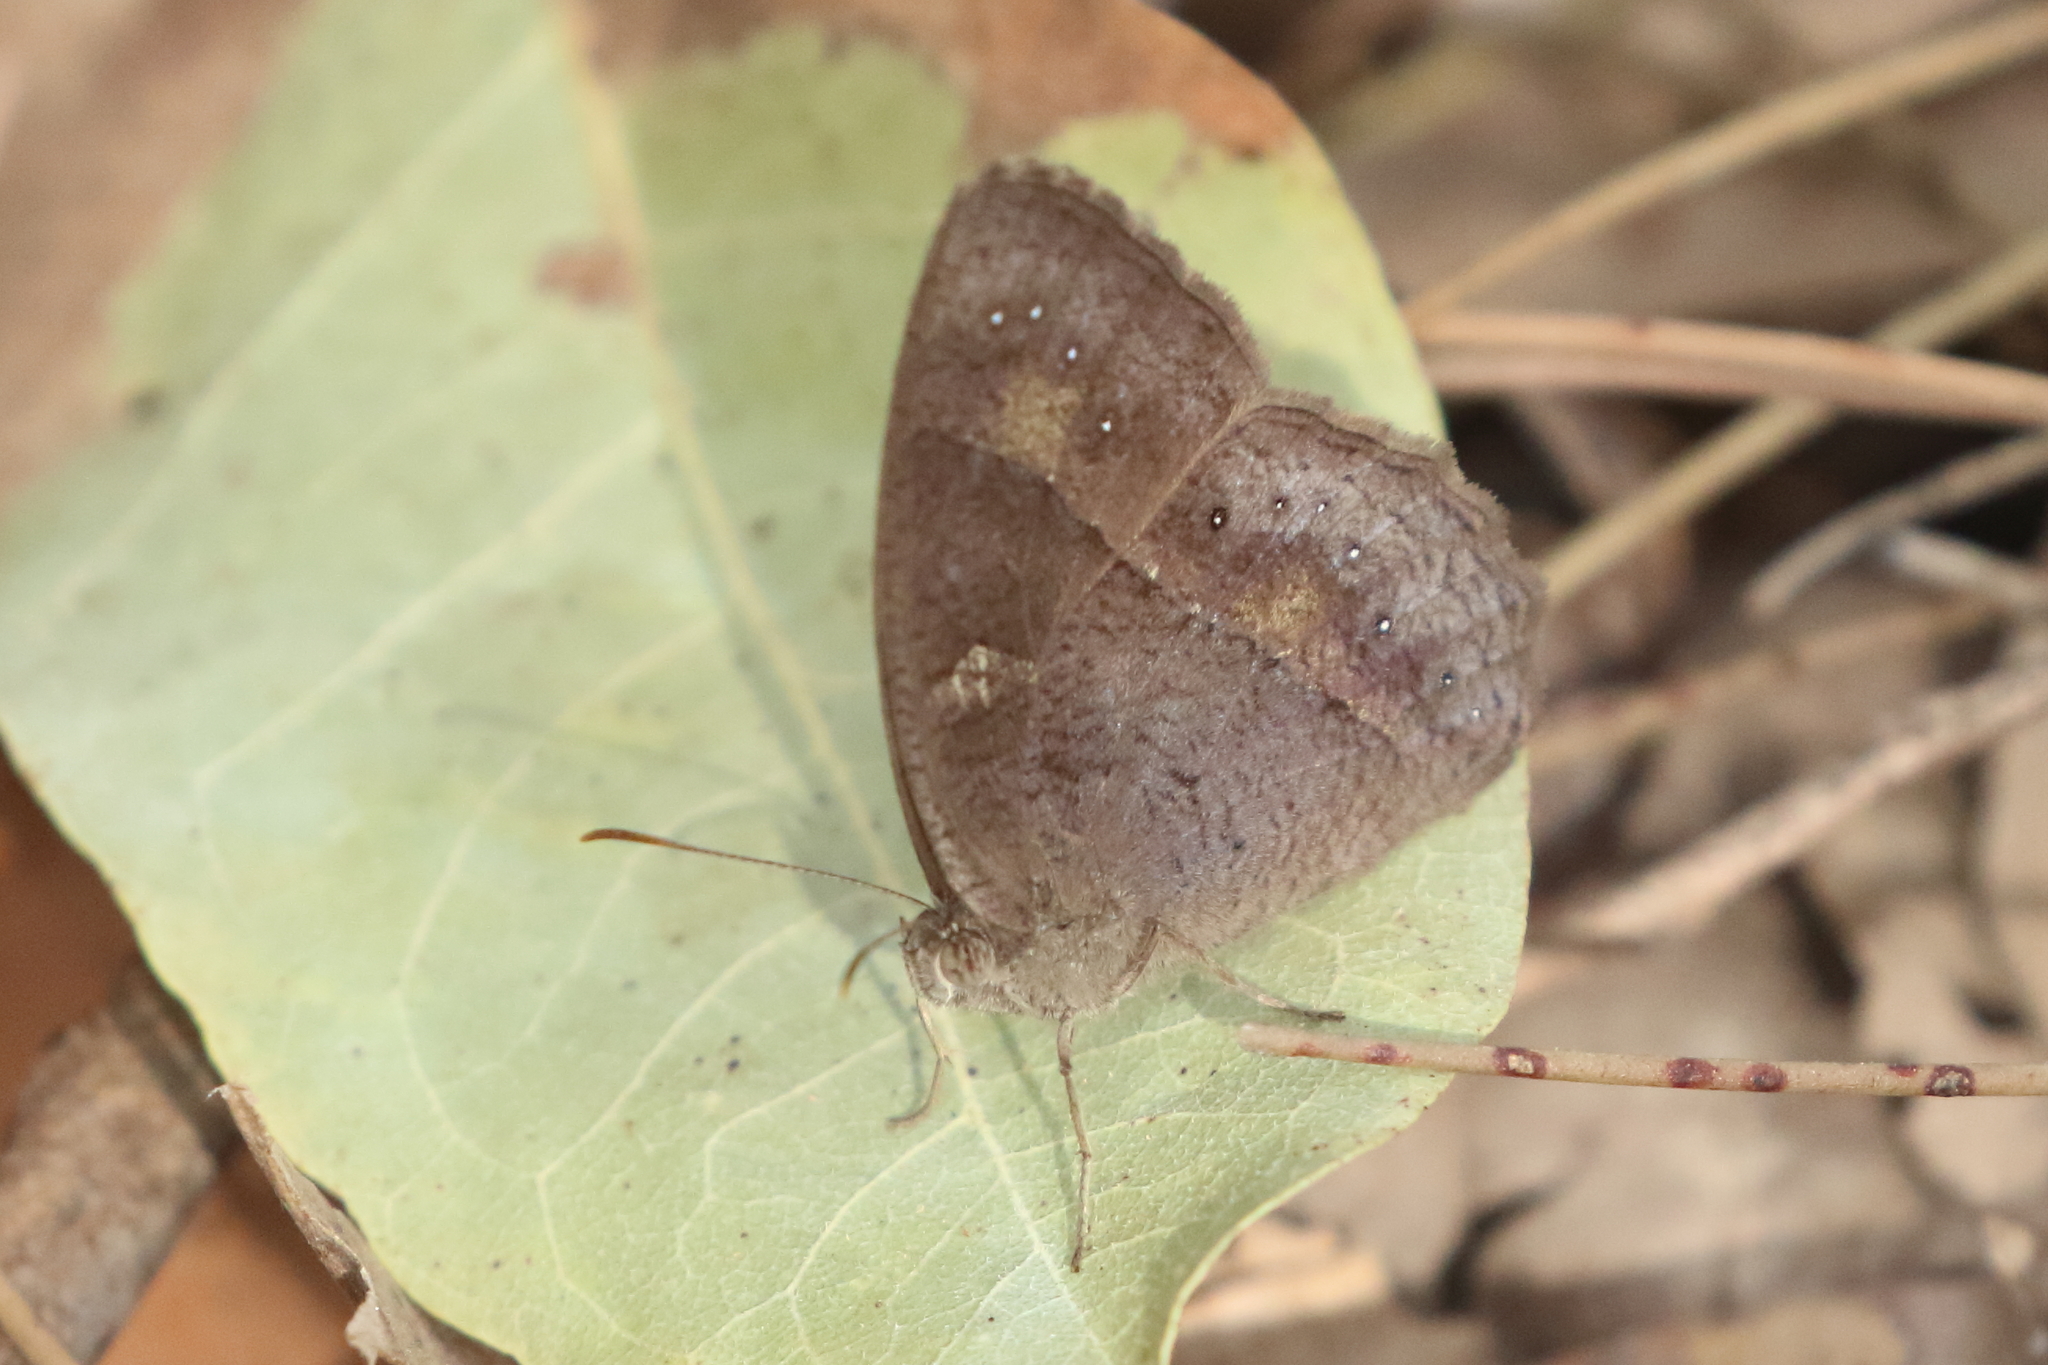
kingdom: Animalia
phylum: Arthropoda
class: Insecta
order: Lepidoptera
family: Nymphalidae
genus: Mycalesis
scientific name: Mycalesis perseus
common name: Dingy bushbrown
